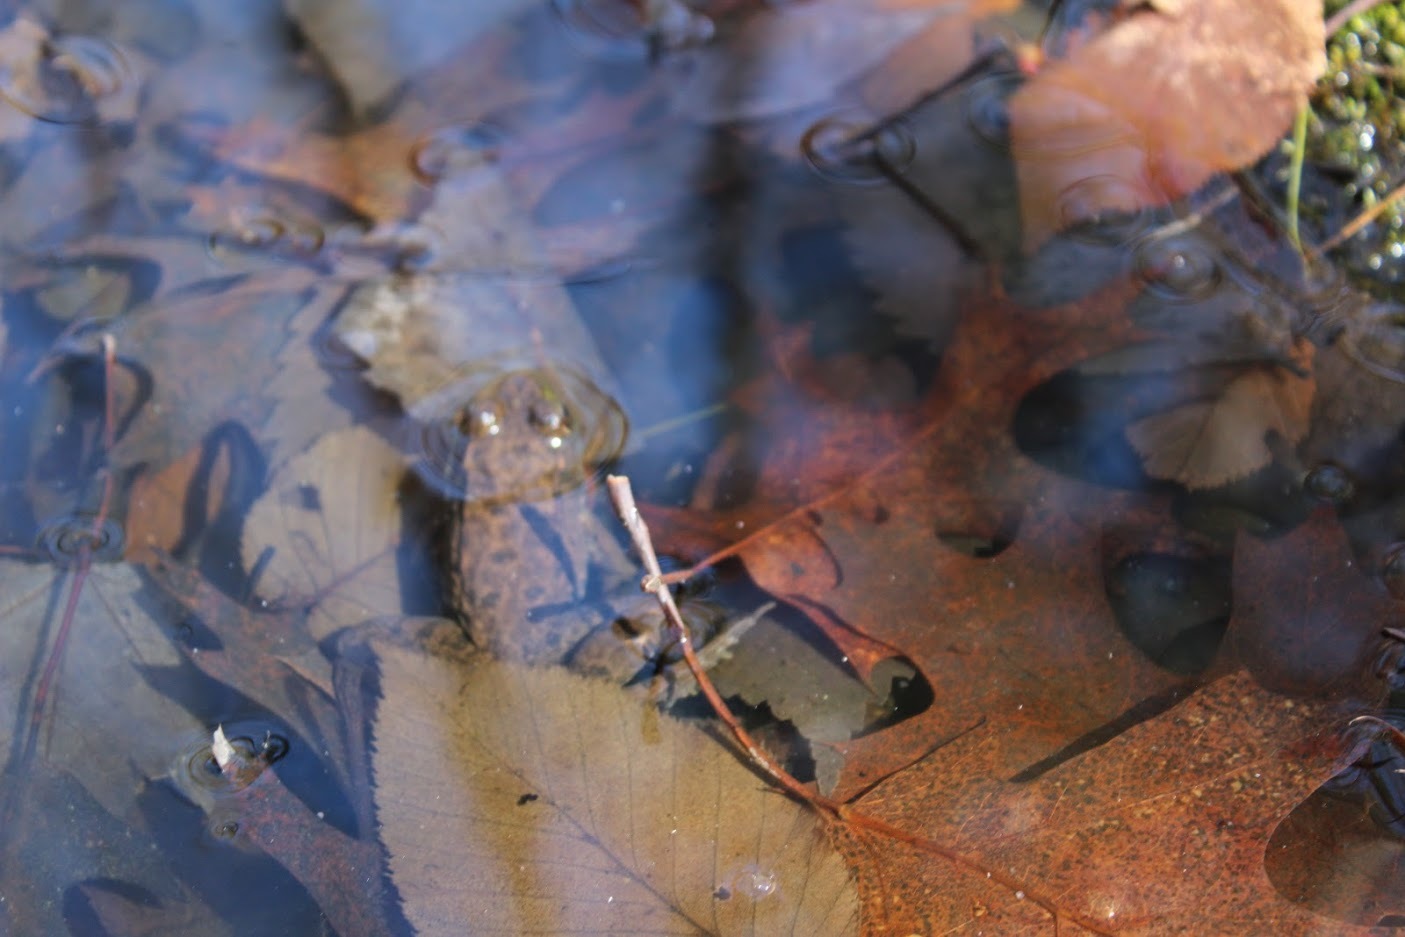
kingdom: Animalia
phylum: Chordata
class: Amphibia
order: Anura
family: Ranidae
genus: Lithobates
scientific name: Lithobates clamitans
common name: Green frog
